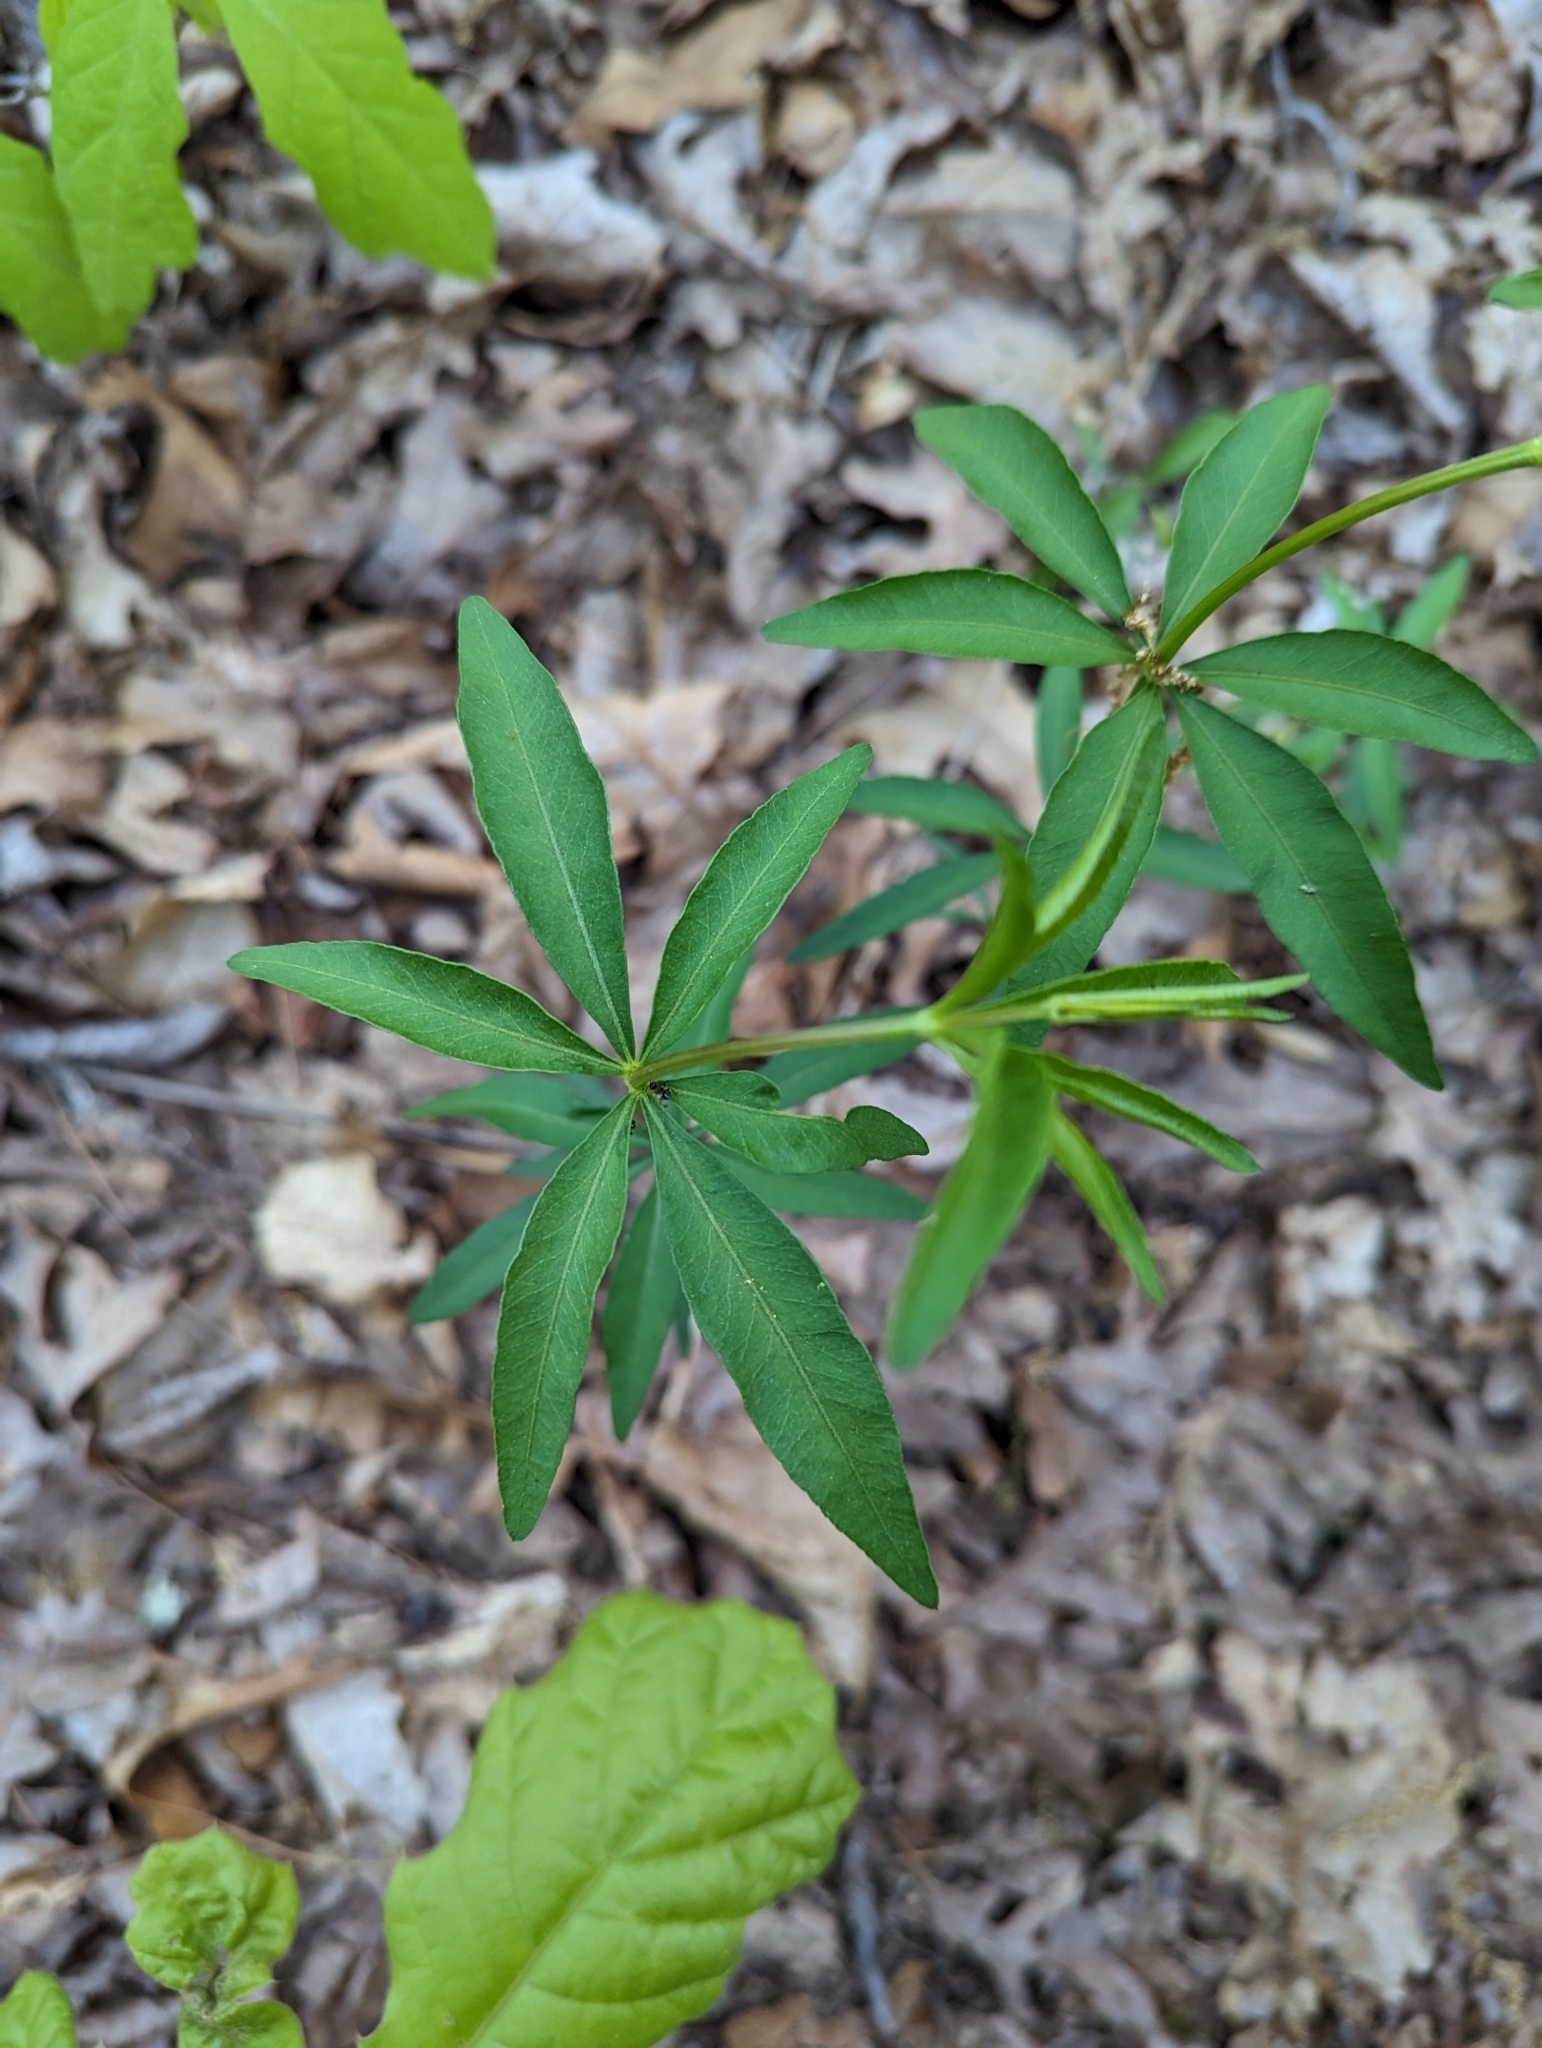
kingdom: Plantae
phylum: Tracheophyta
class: Magnoliopsida
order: Asterales
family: Asteraceae
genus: Coreopsis
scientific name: Coreopsis major
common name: Forest tickseed
